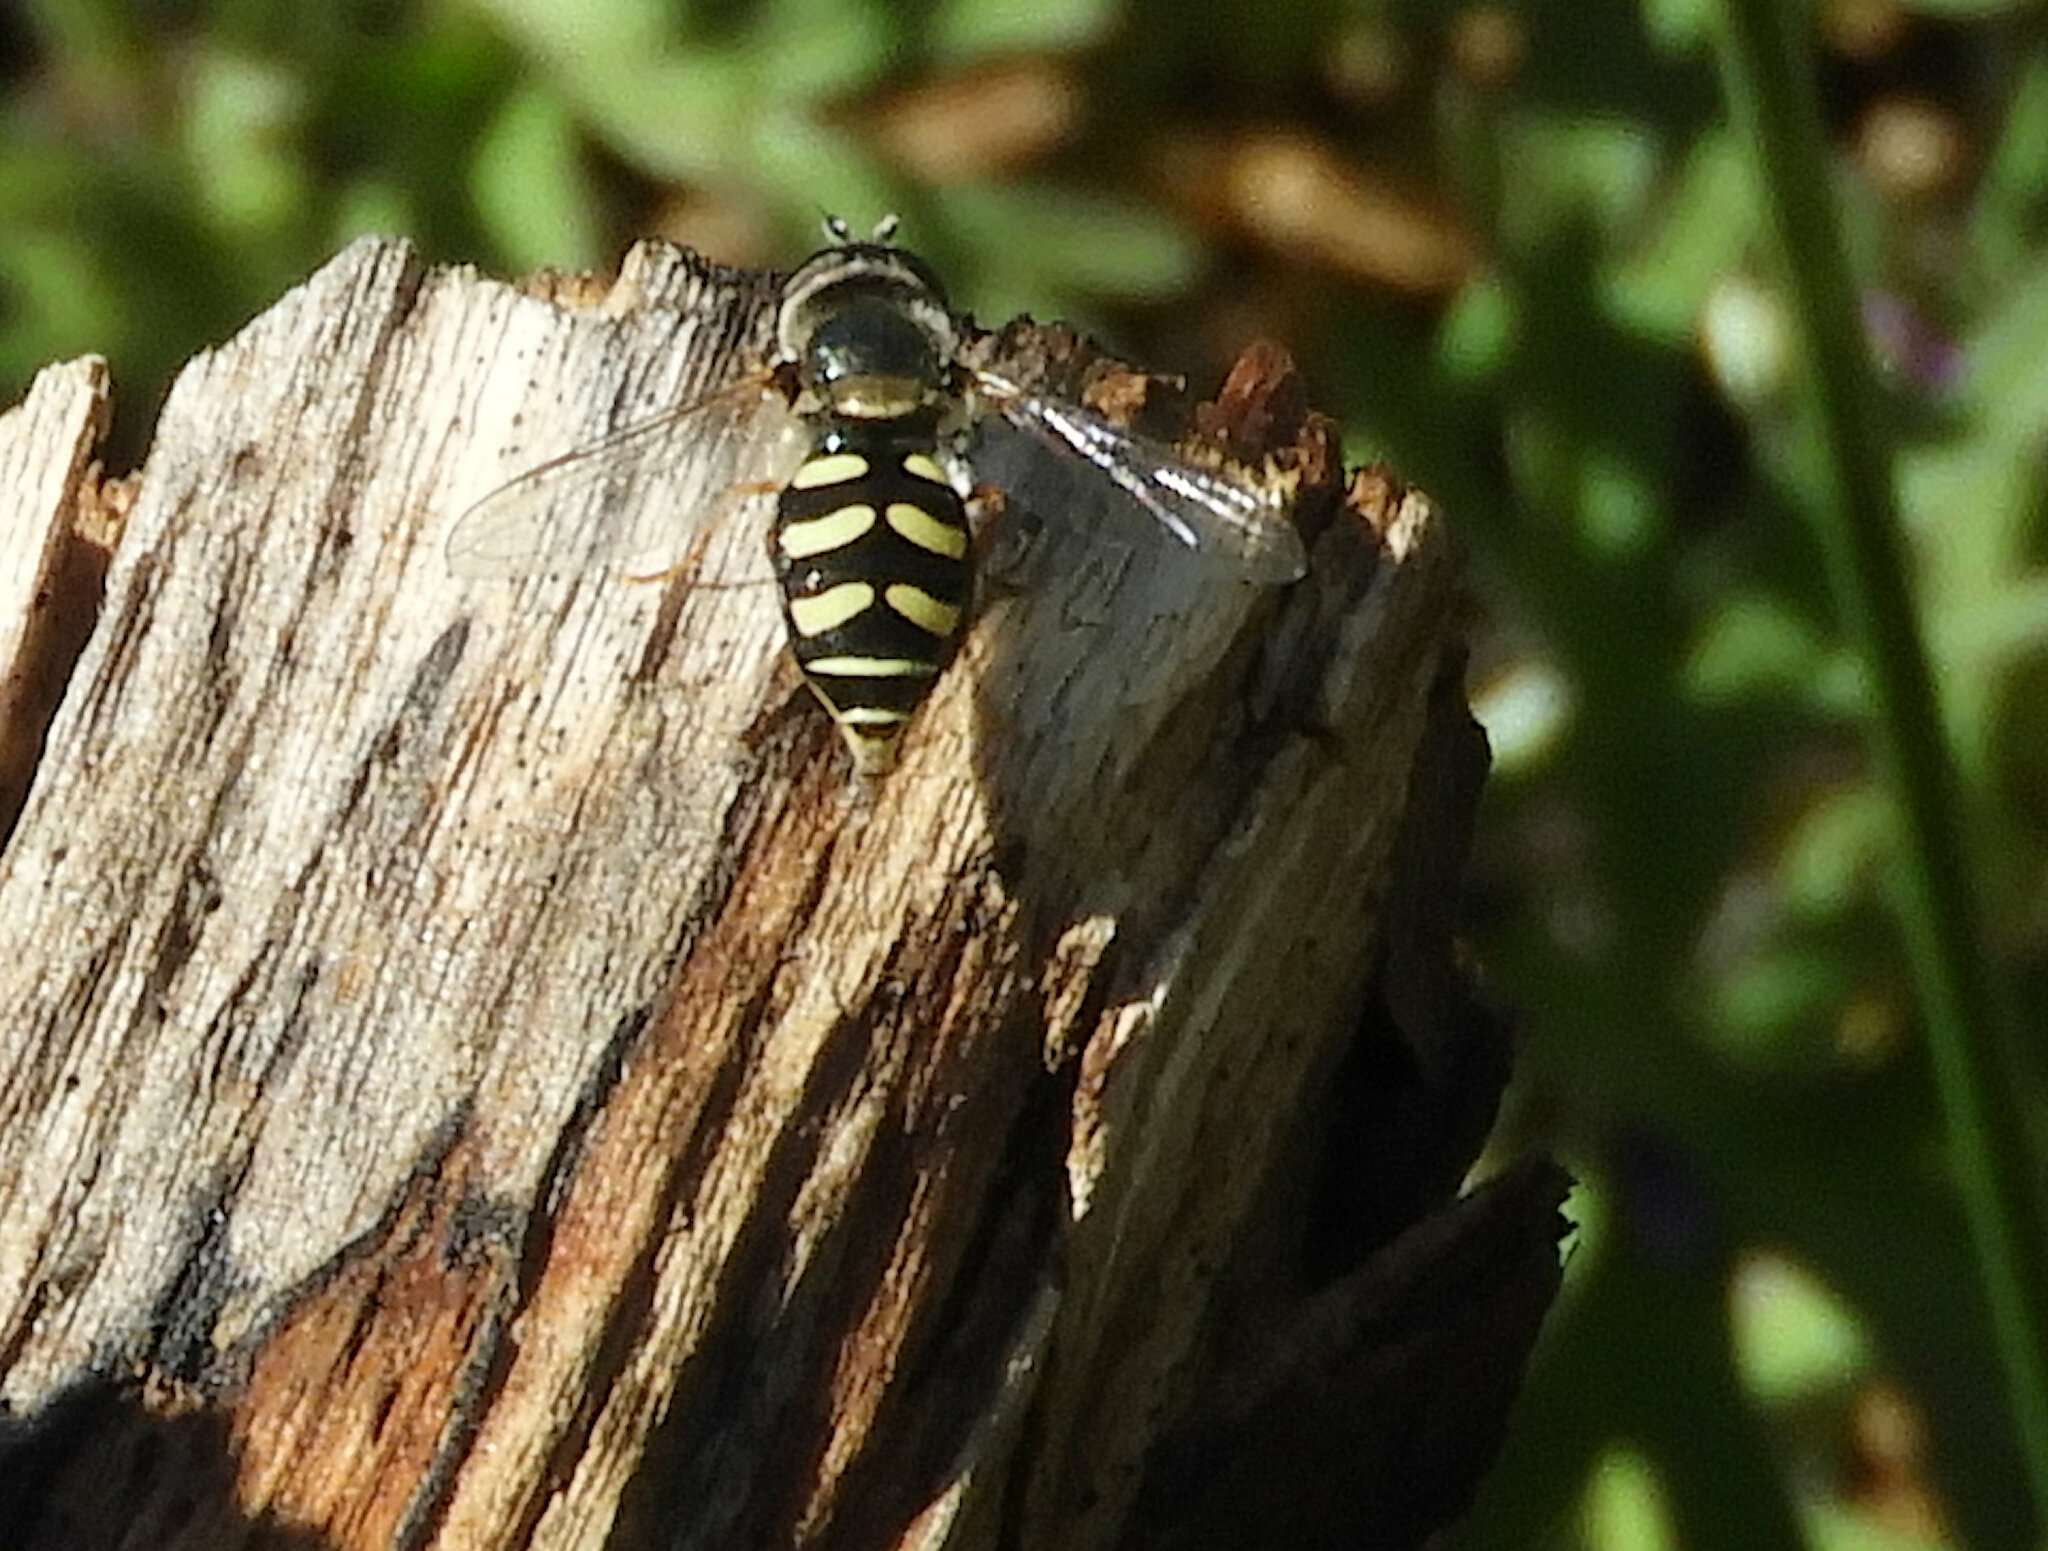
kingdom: Animalia
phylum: Arthropoda
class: Insecta
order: Diptera
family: Syrphidae
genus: Eupeodes
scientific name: Eupeodes volucris
